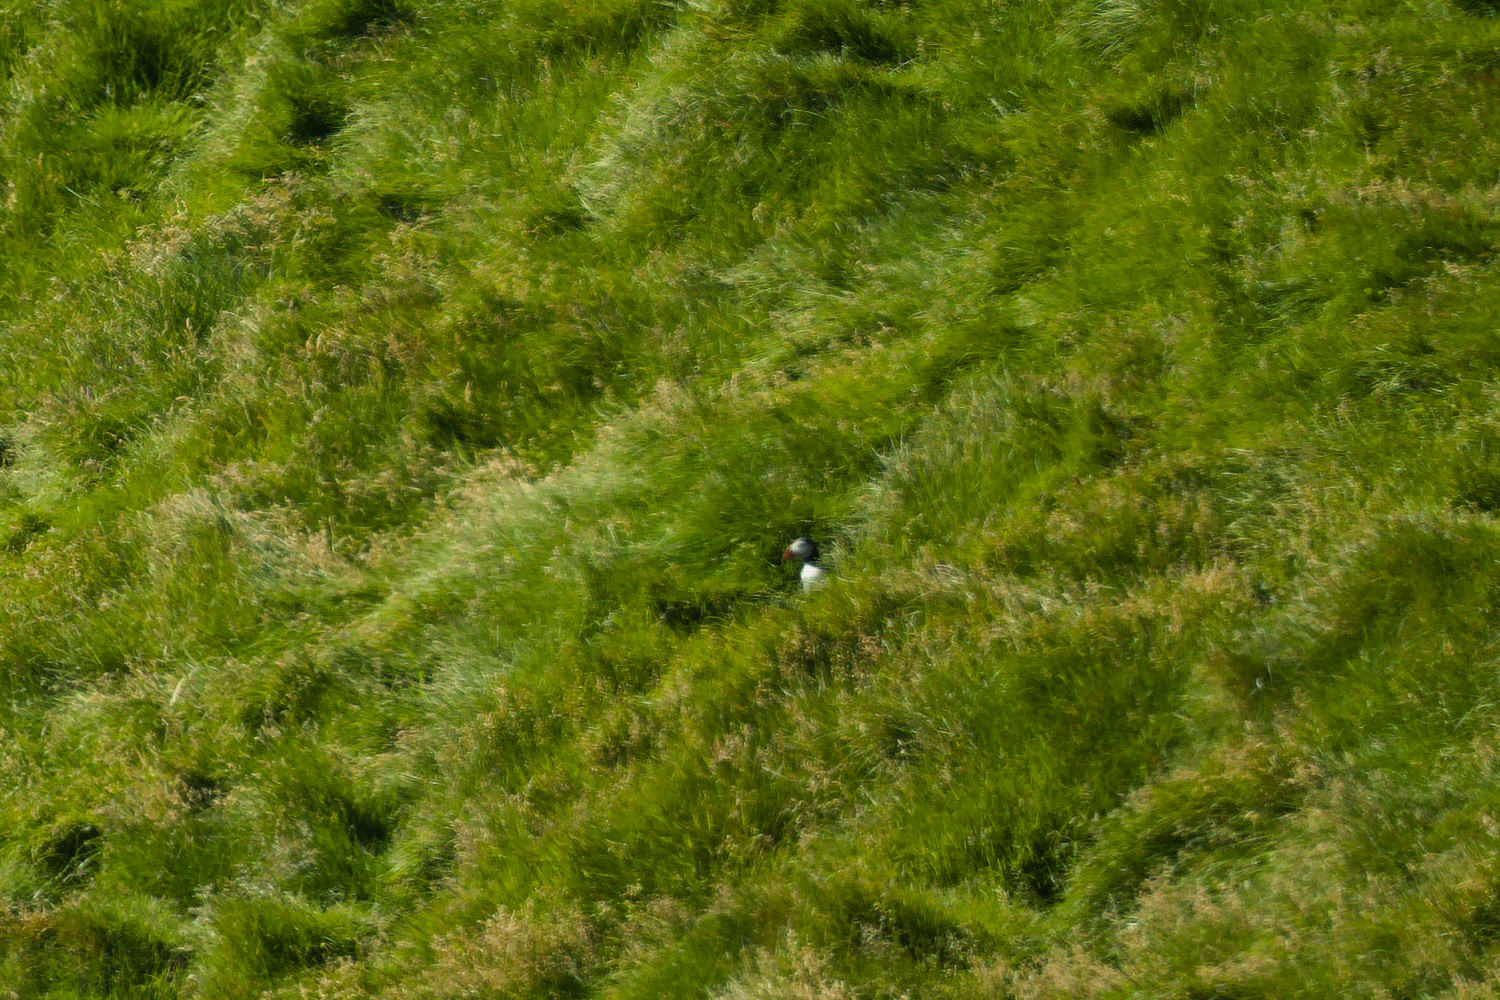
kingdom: Animalia
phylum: Chordata
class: Aves
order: Charadriiformes
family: Alcidae
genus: Fratercula
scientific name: Fratercula arctica
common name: Atlantic puffin
